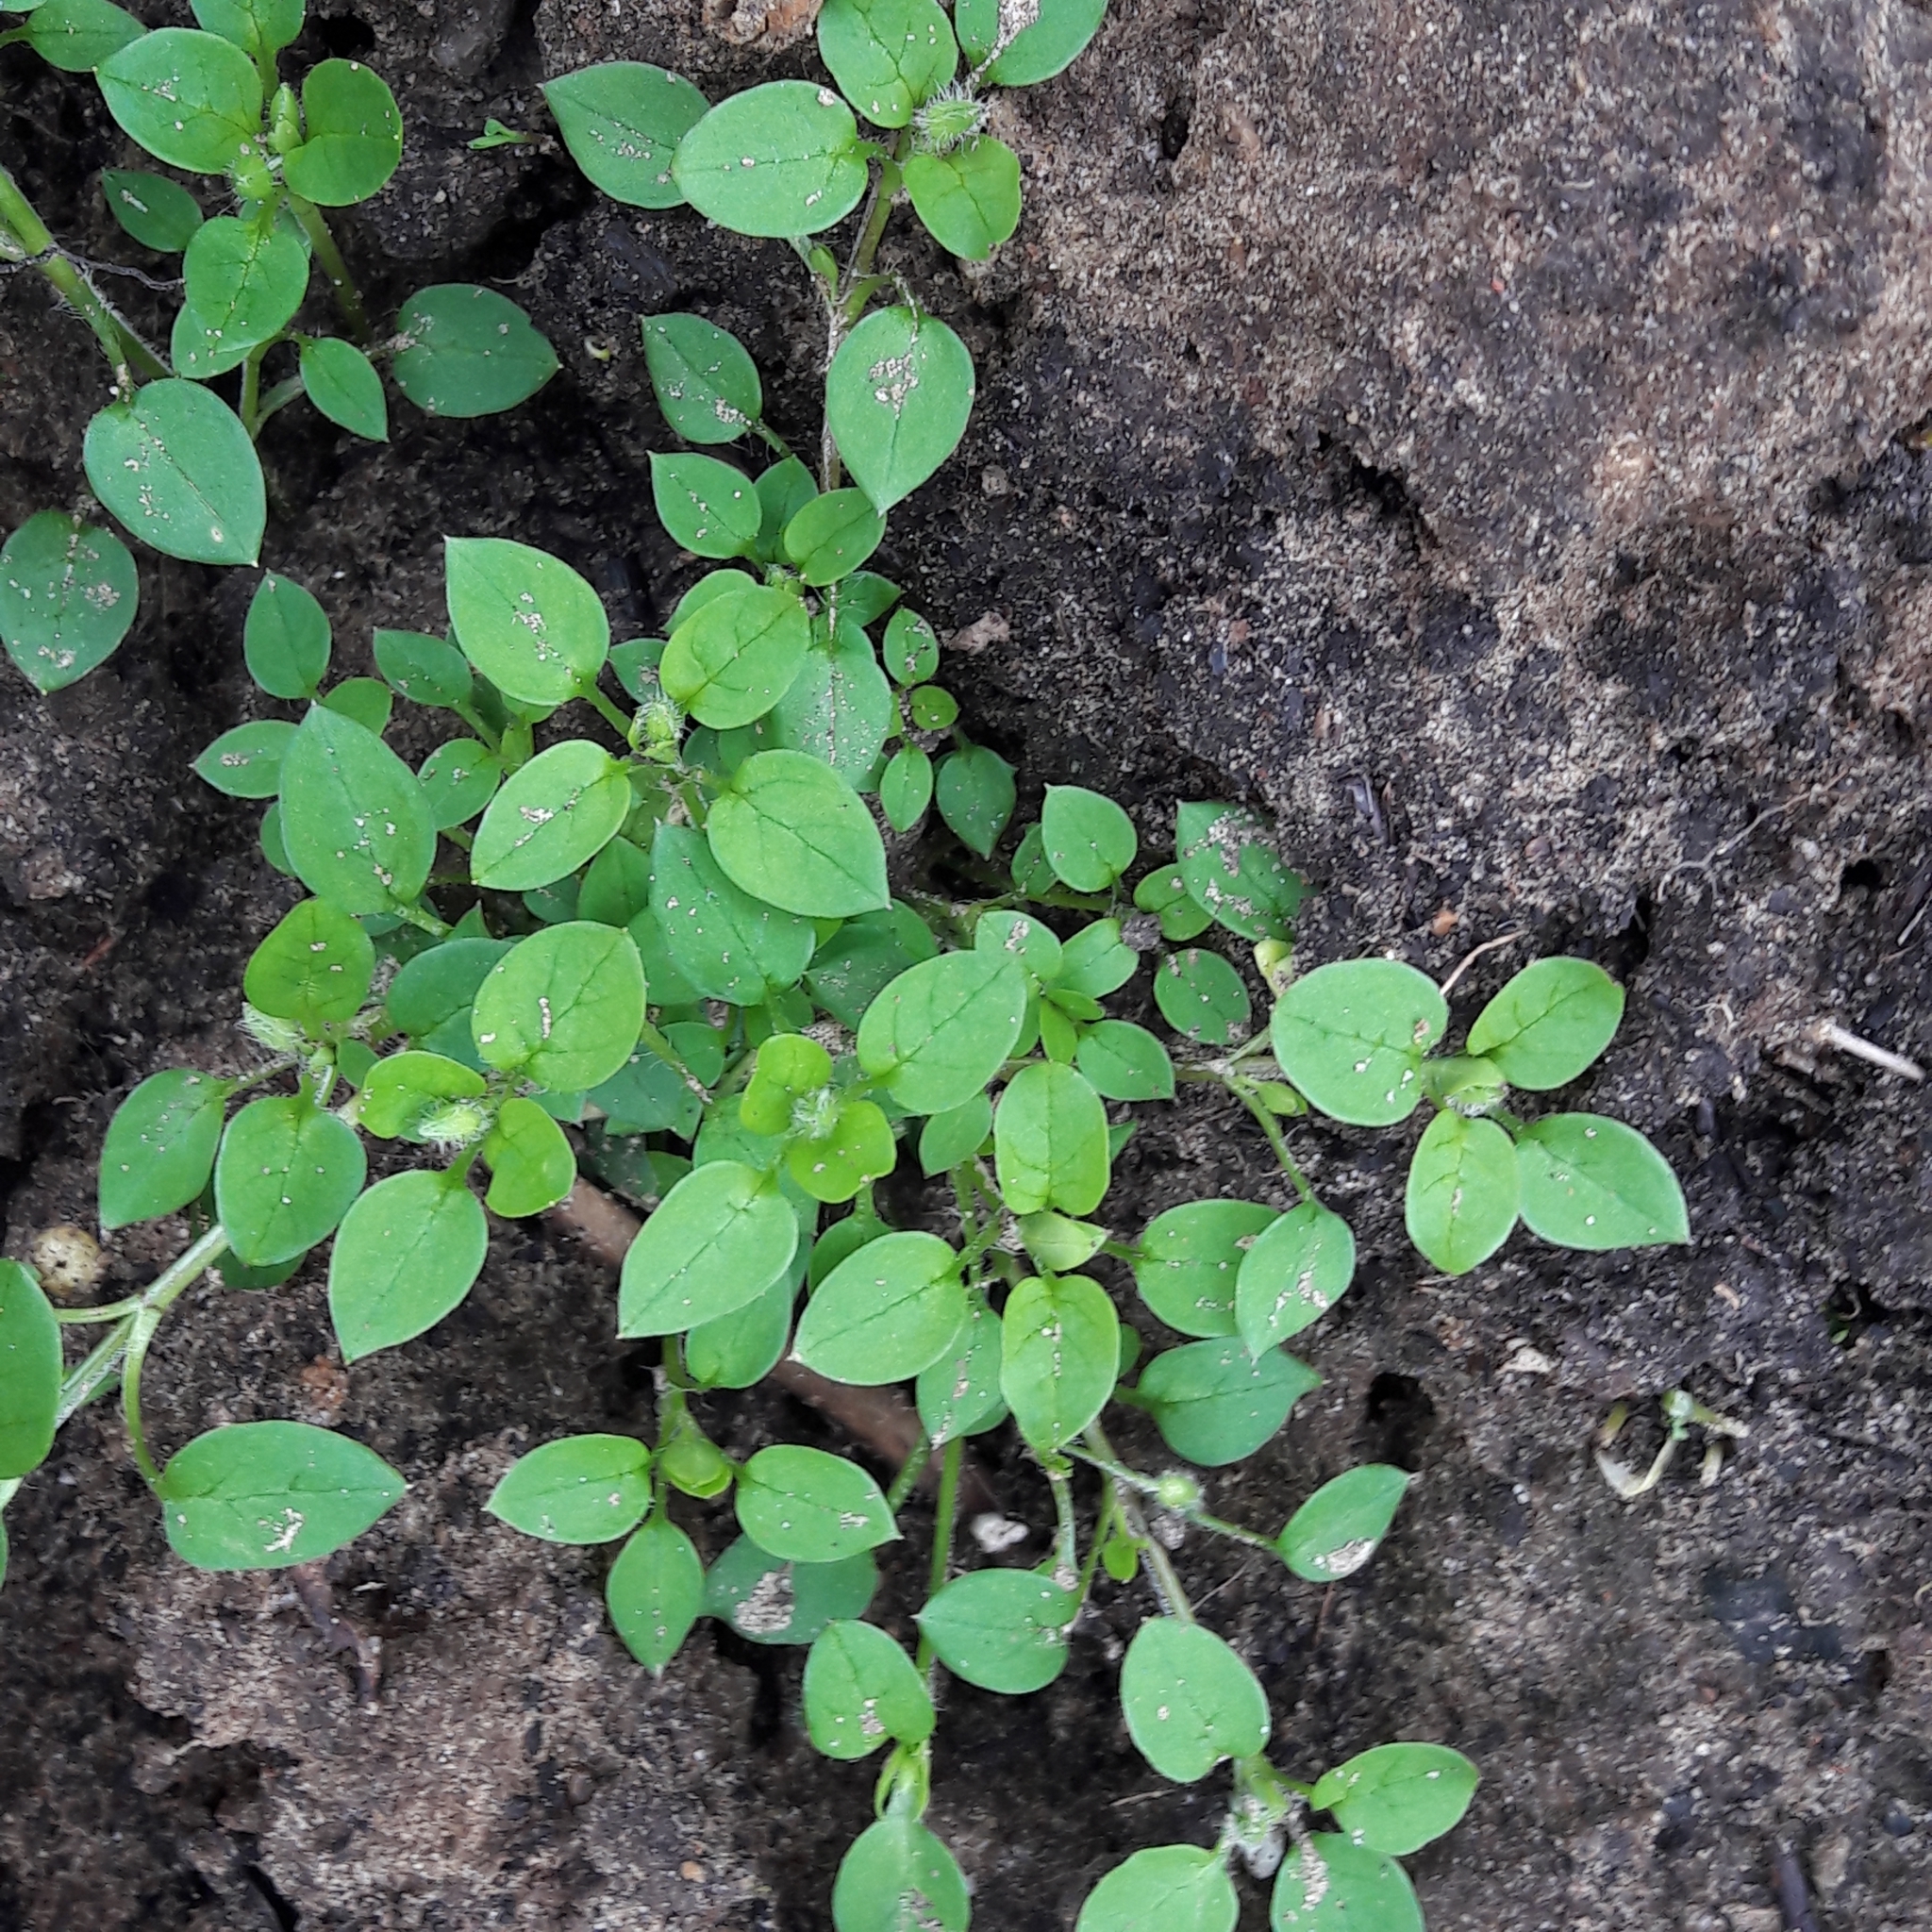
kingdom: Plantae
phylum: Tracheophyta
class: Magnoliopsida
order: Caryophyllales
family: Caryophyllaceae
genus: Stellaria
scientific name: Stellaria media
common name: Common chickweed
